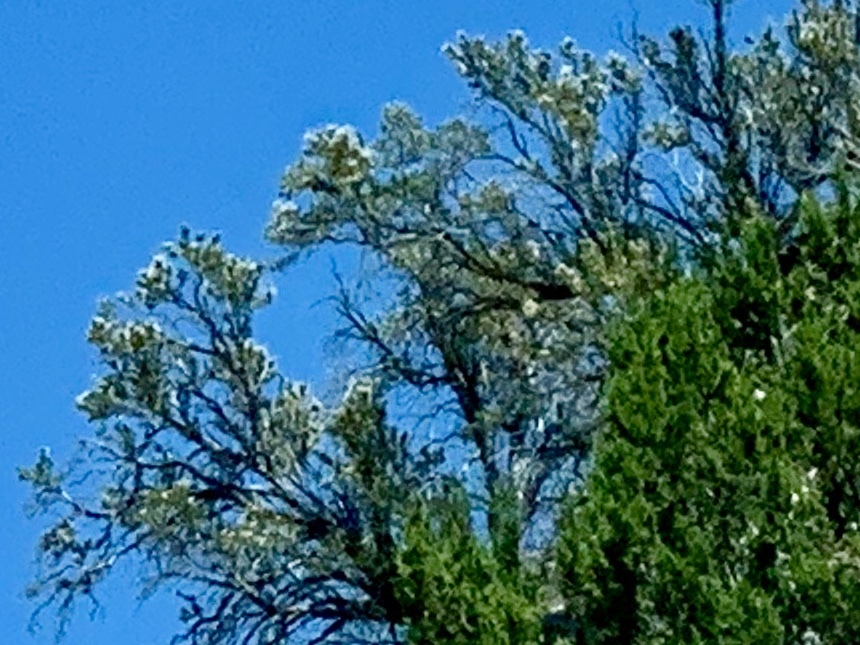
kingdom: Plantae
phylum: Tracheophyta
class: Magnoliopsida
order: Rosales
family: Rosaceae
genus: Purshia
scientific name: Purshia stansburiana
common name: Stansbury's cliffrose
